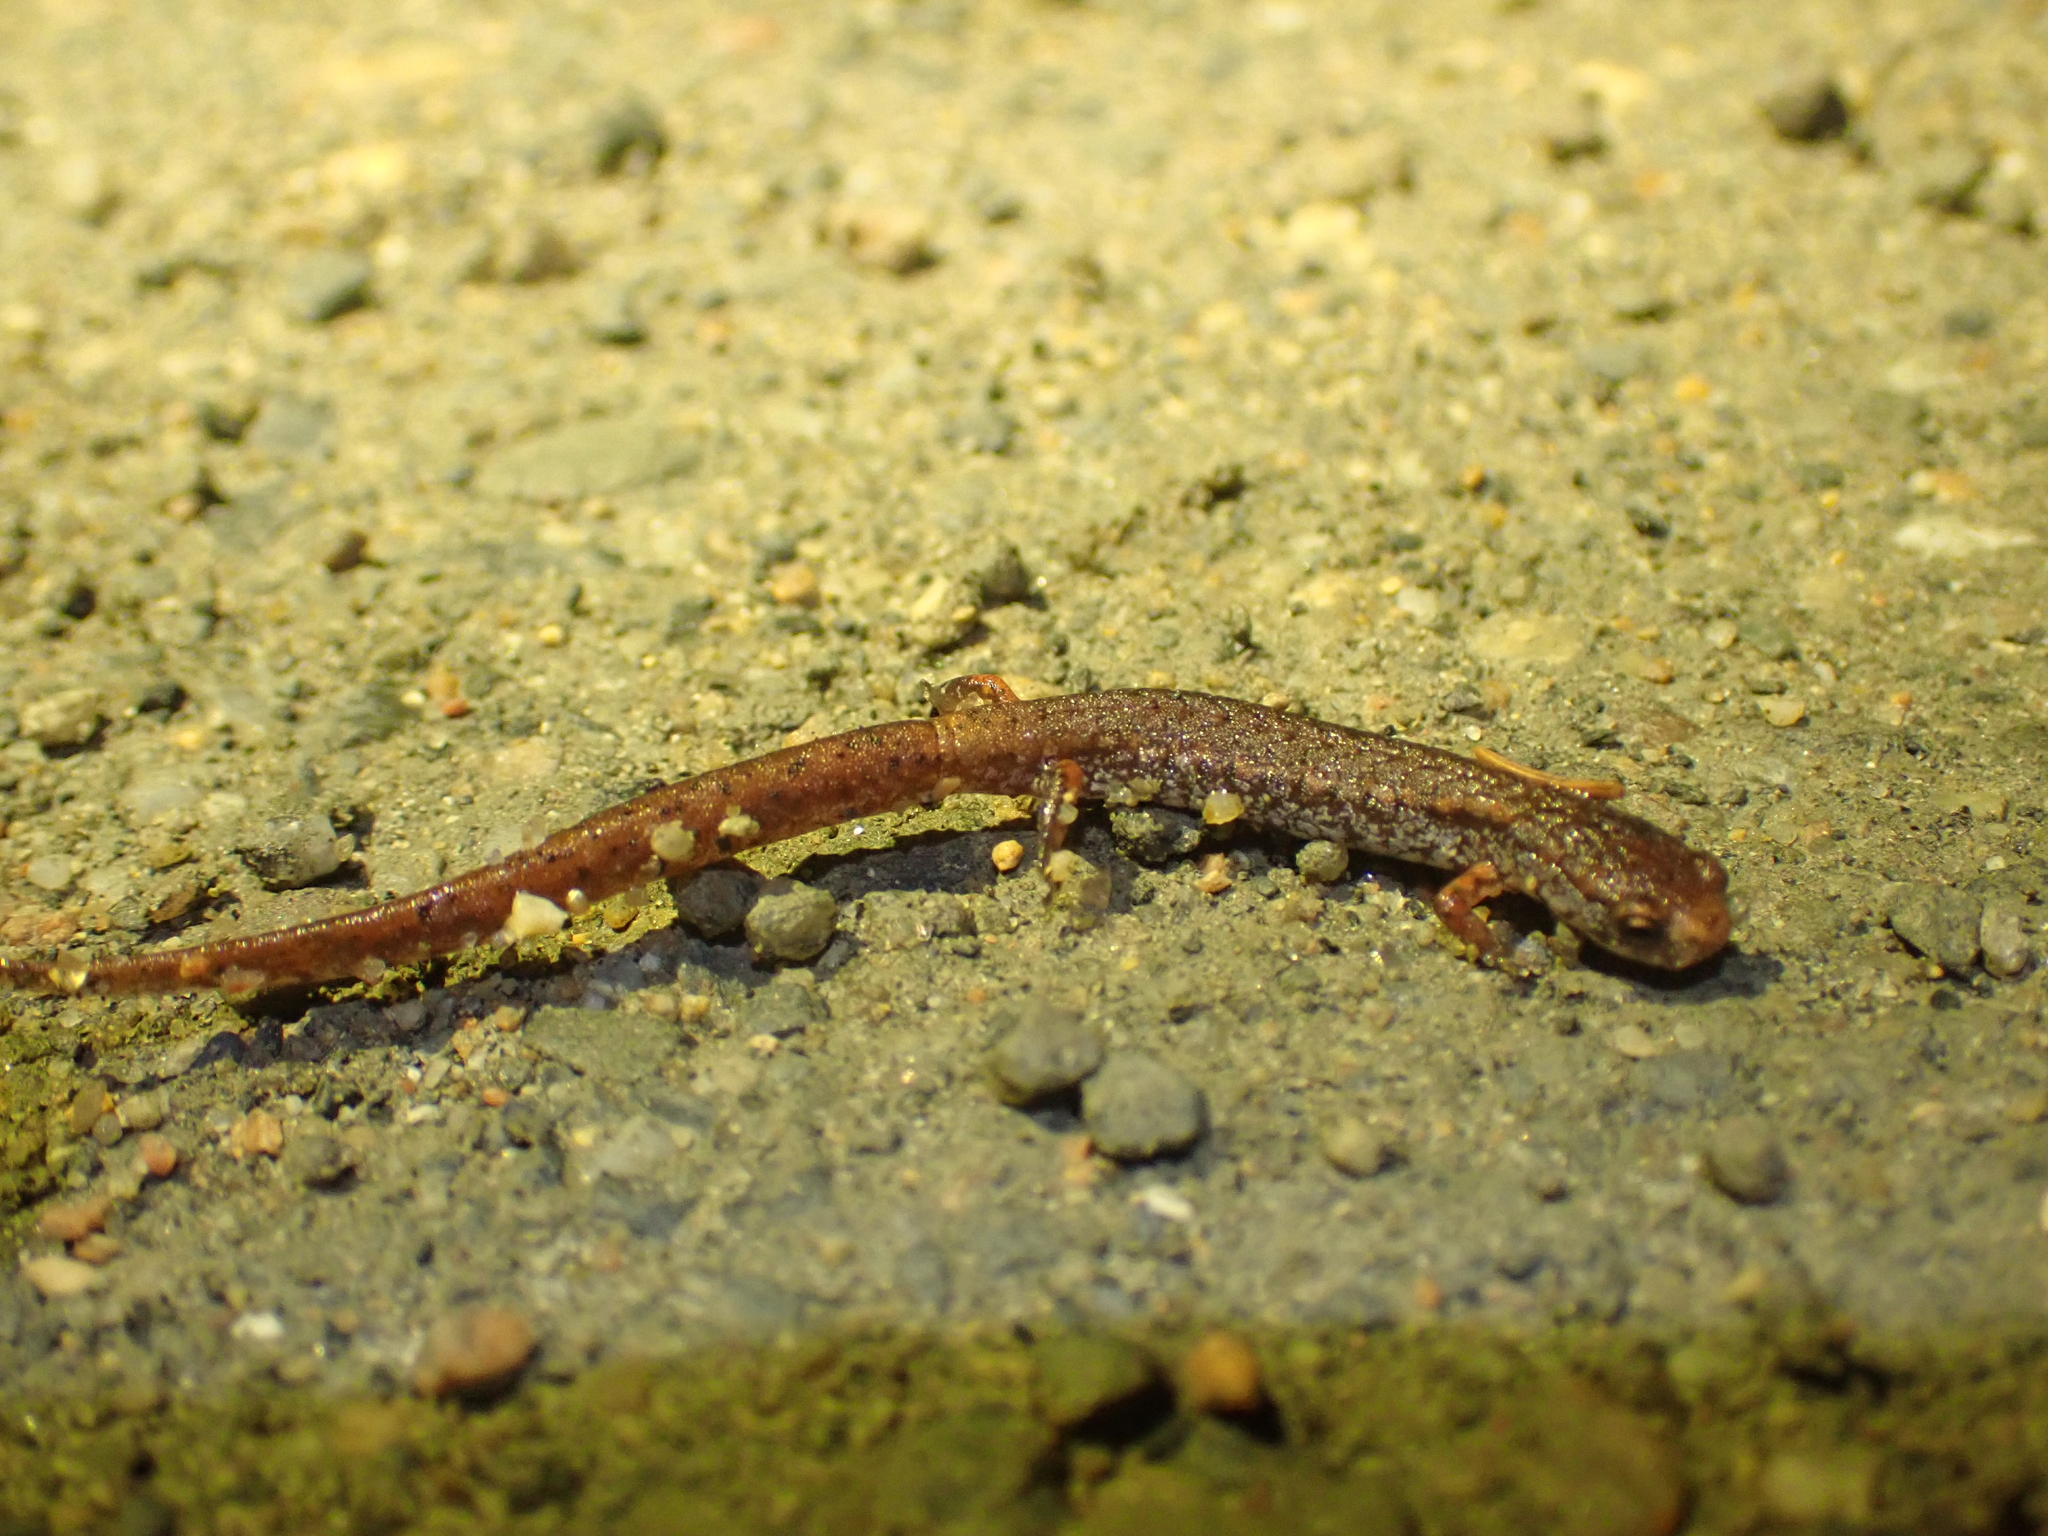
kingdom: Animalia
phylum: Chordata
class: Amphibia
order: Caudata
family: Plethodontidae
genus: Hemidactylium
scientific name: Hemidactylium scutatum
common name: Four-toed salamander
